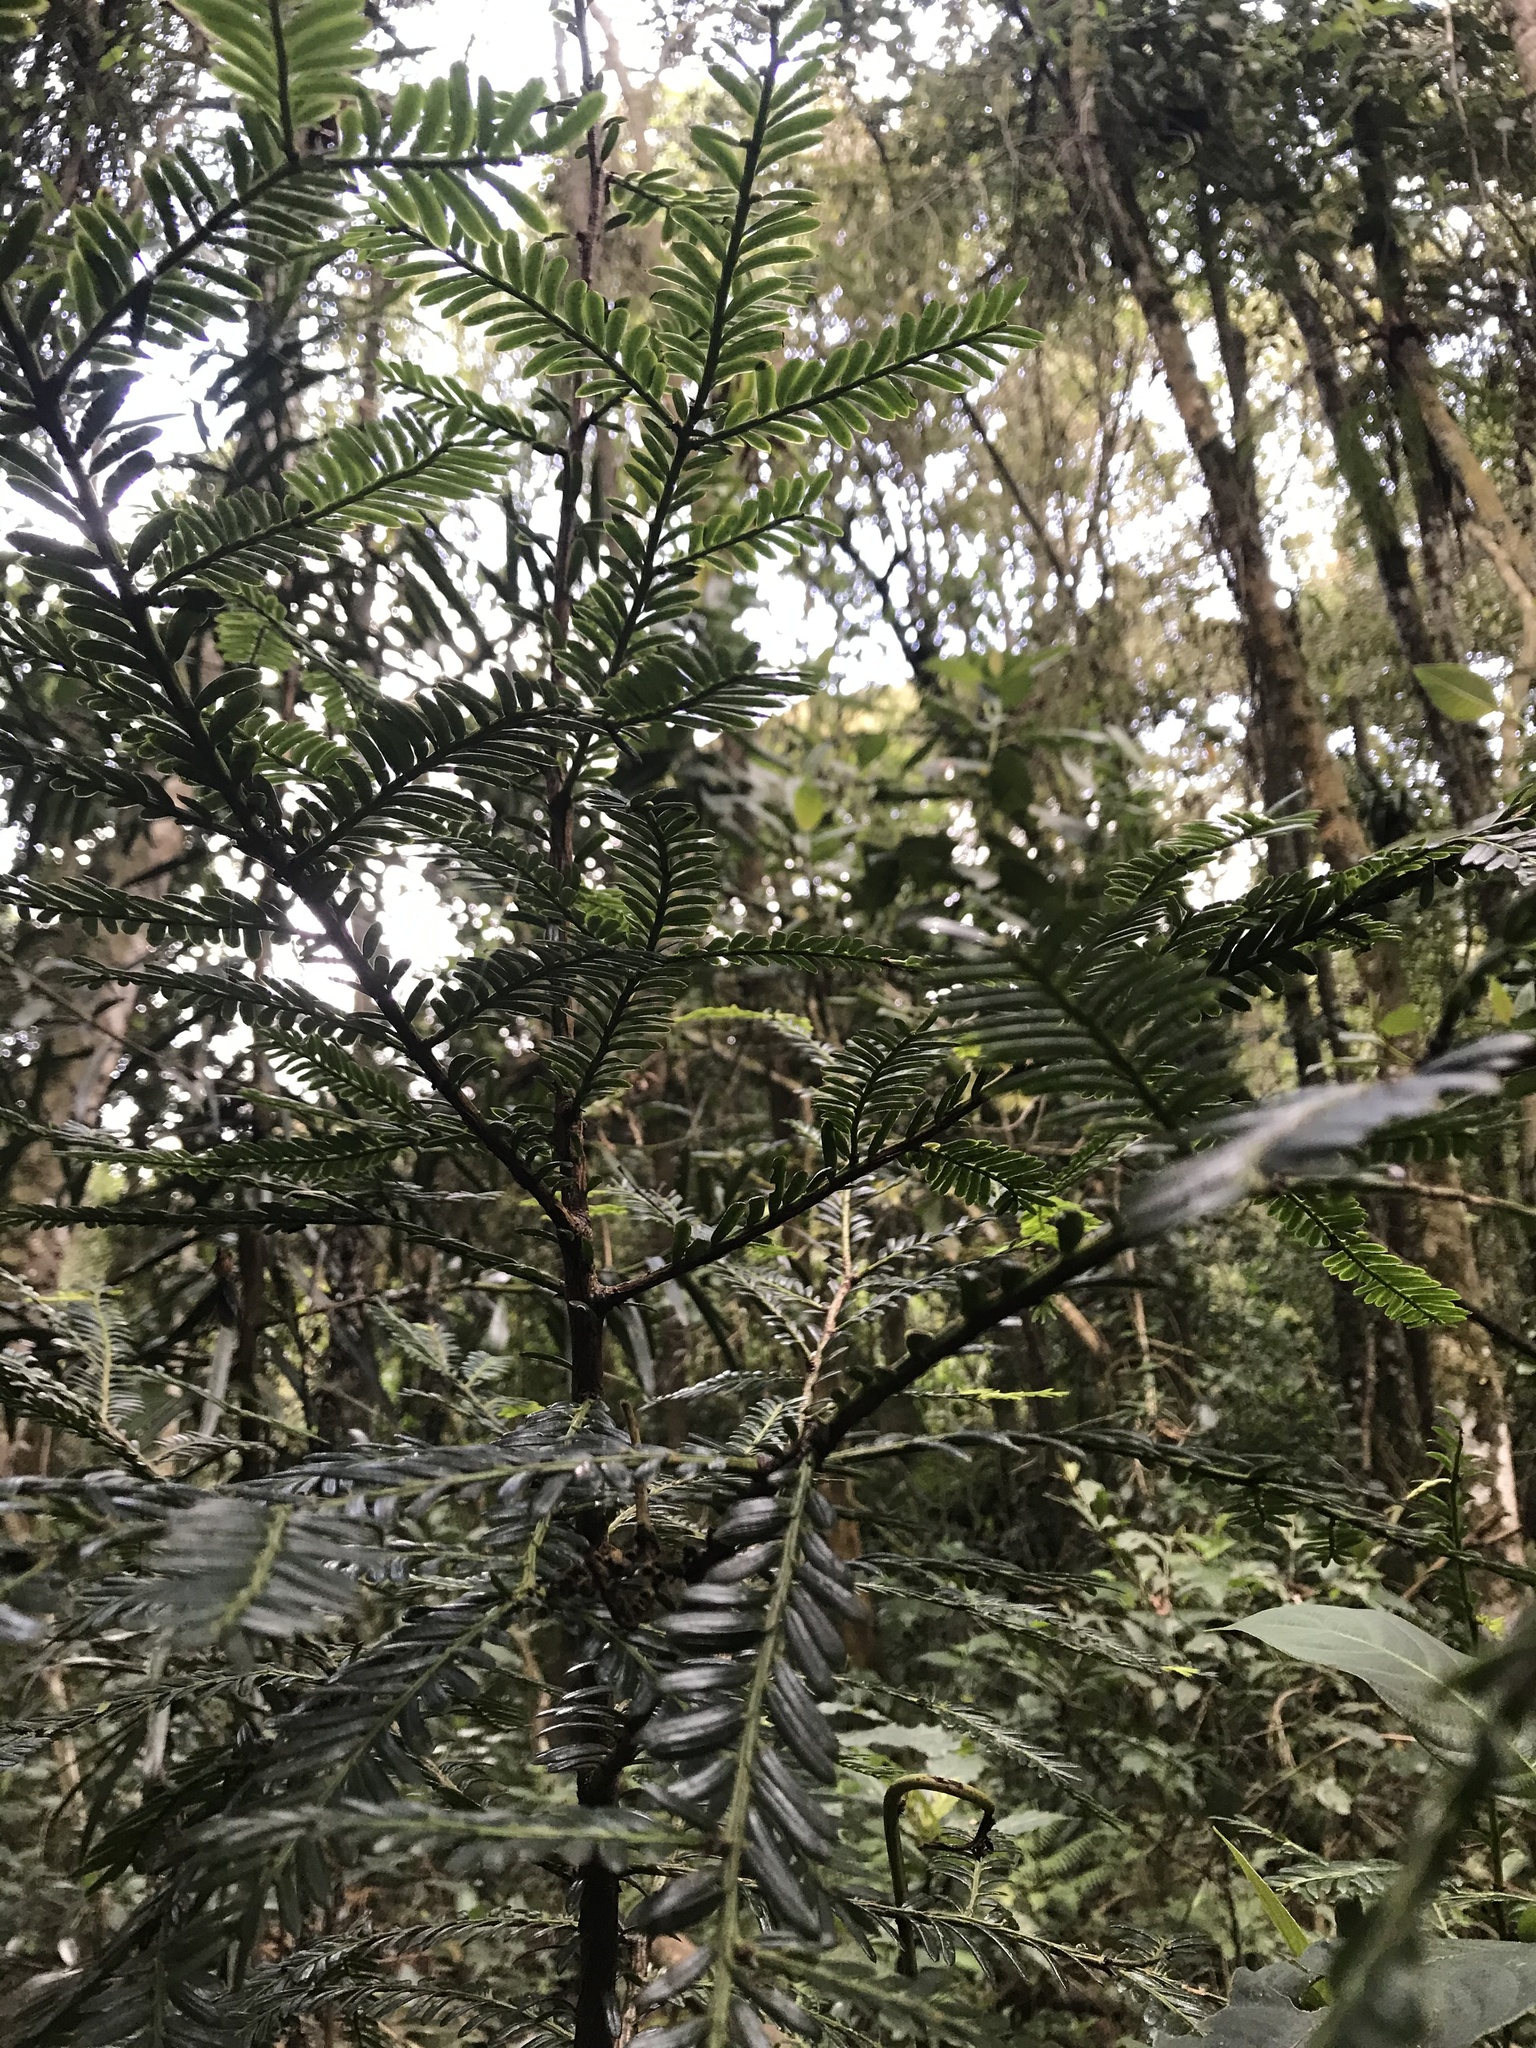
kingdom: Plantae
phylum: Tracheophyta
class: Pinopsida
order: Pinales
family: Podocarpaceae
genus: Prumnopitys
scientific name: Prumnopitys montana
